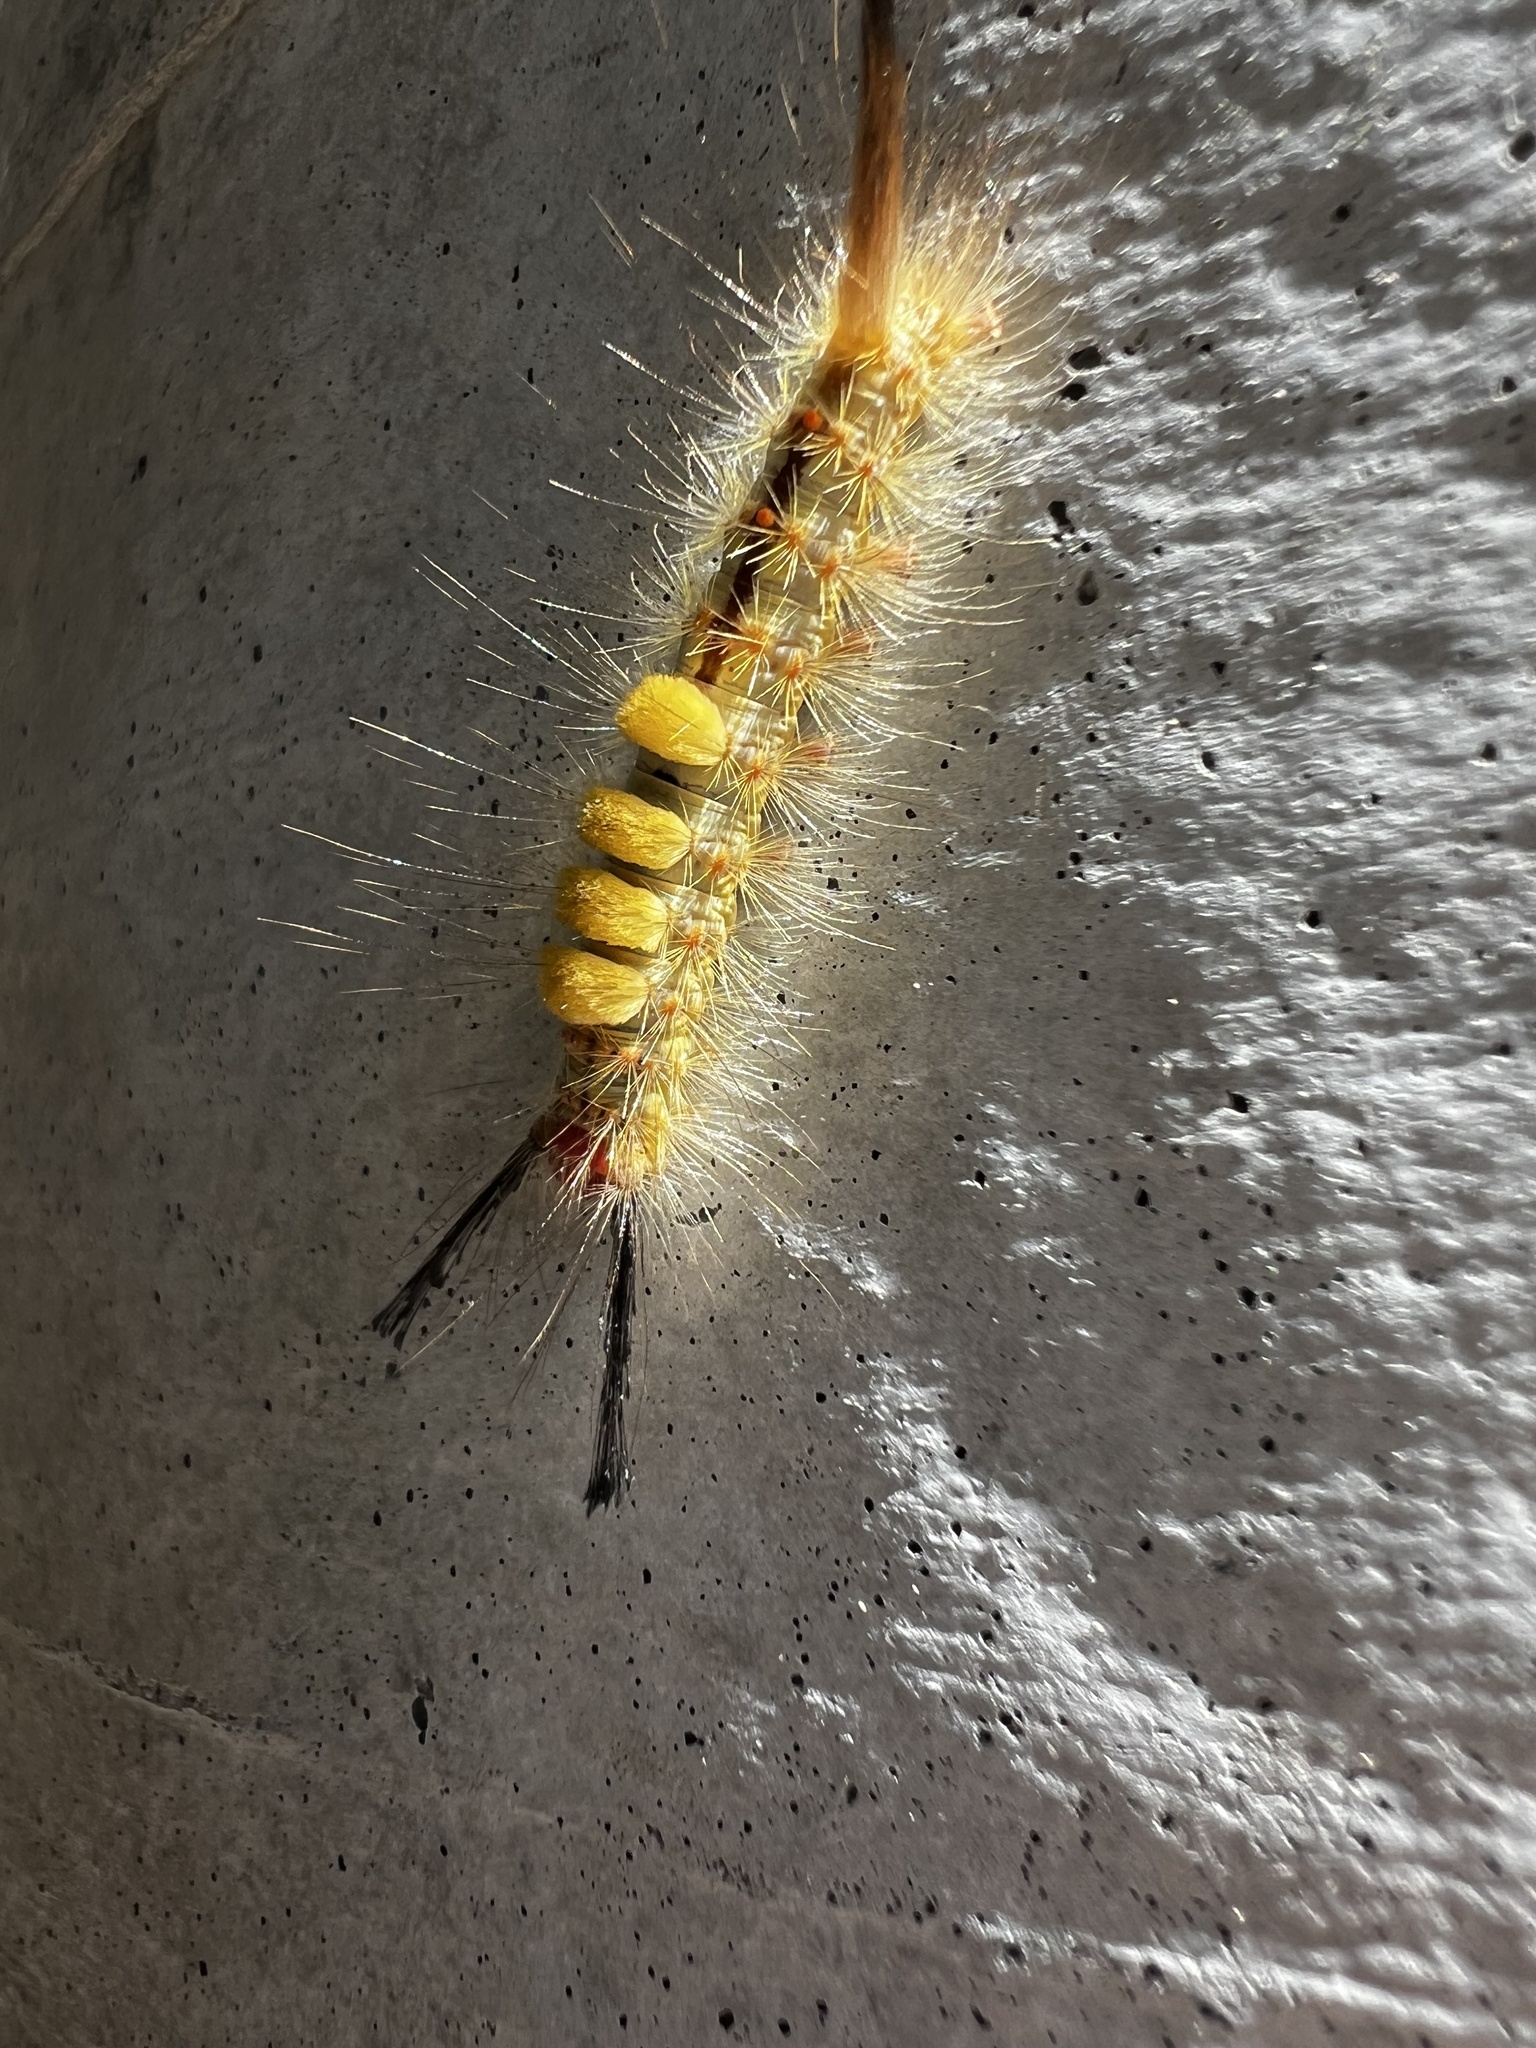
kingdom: Animalia
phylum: Arthropoda
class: Insecta
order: Lepidoptera
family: Erebidae
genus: Orgyia
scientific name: Orgyia detrita
